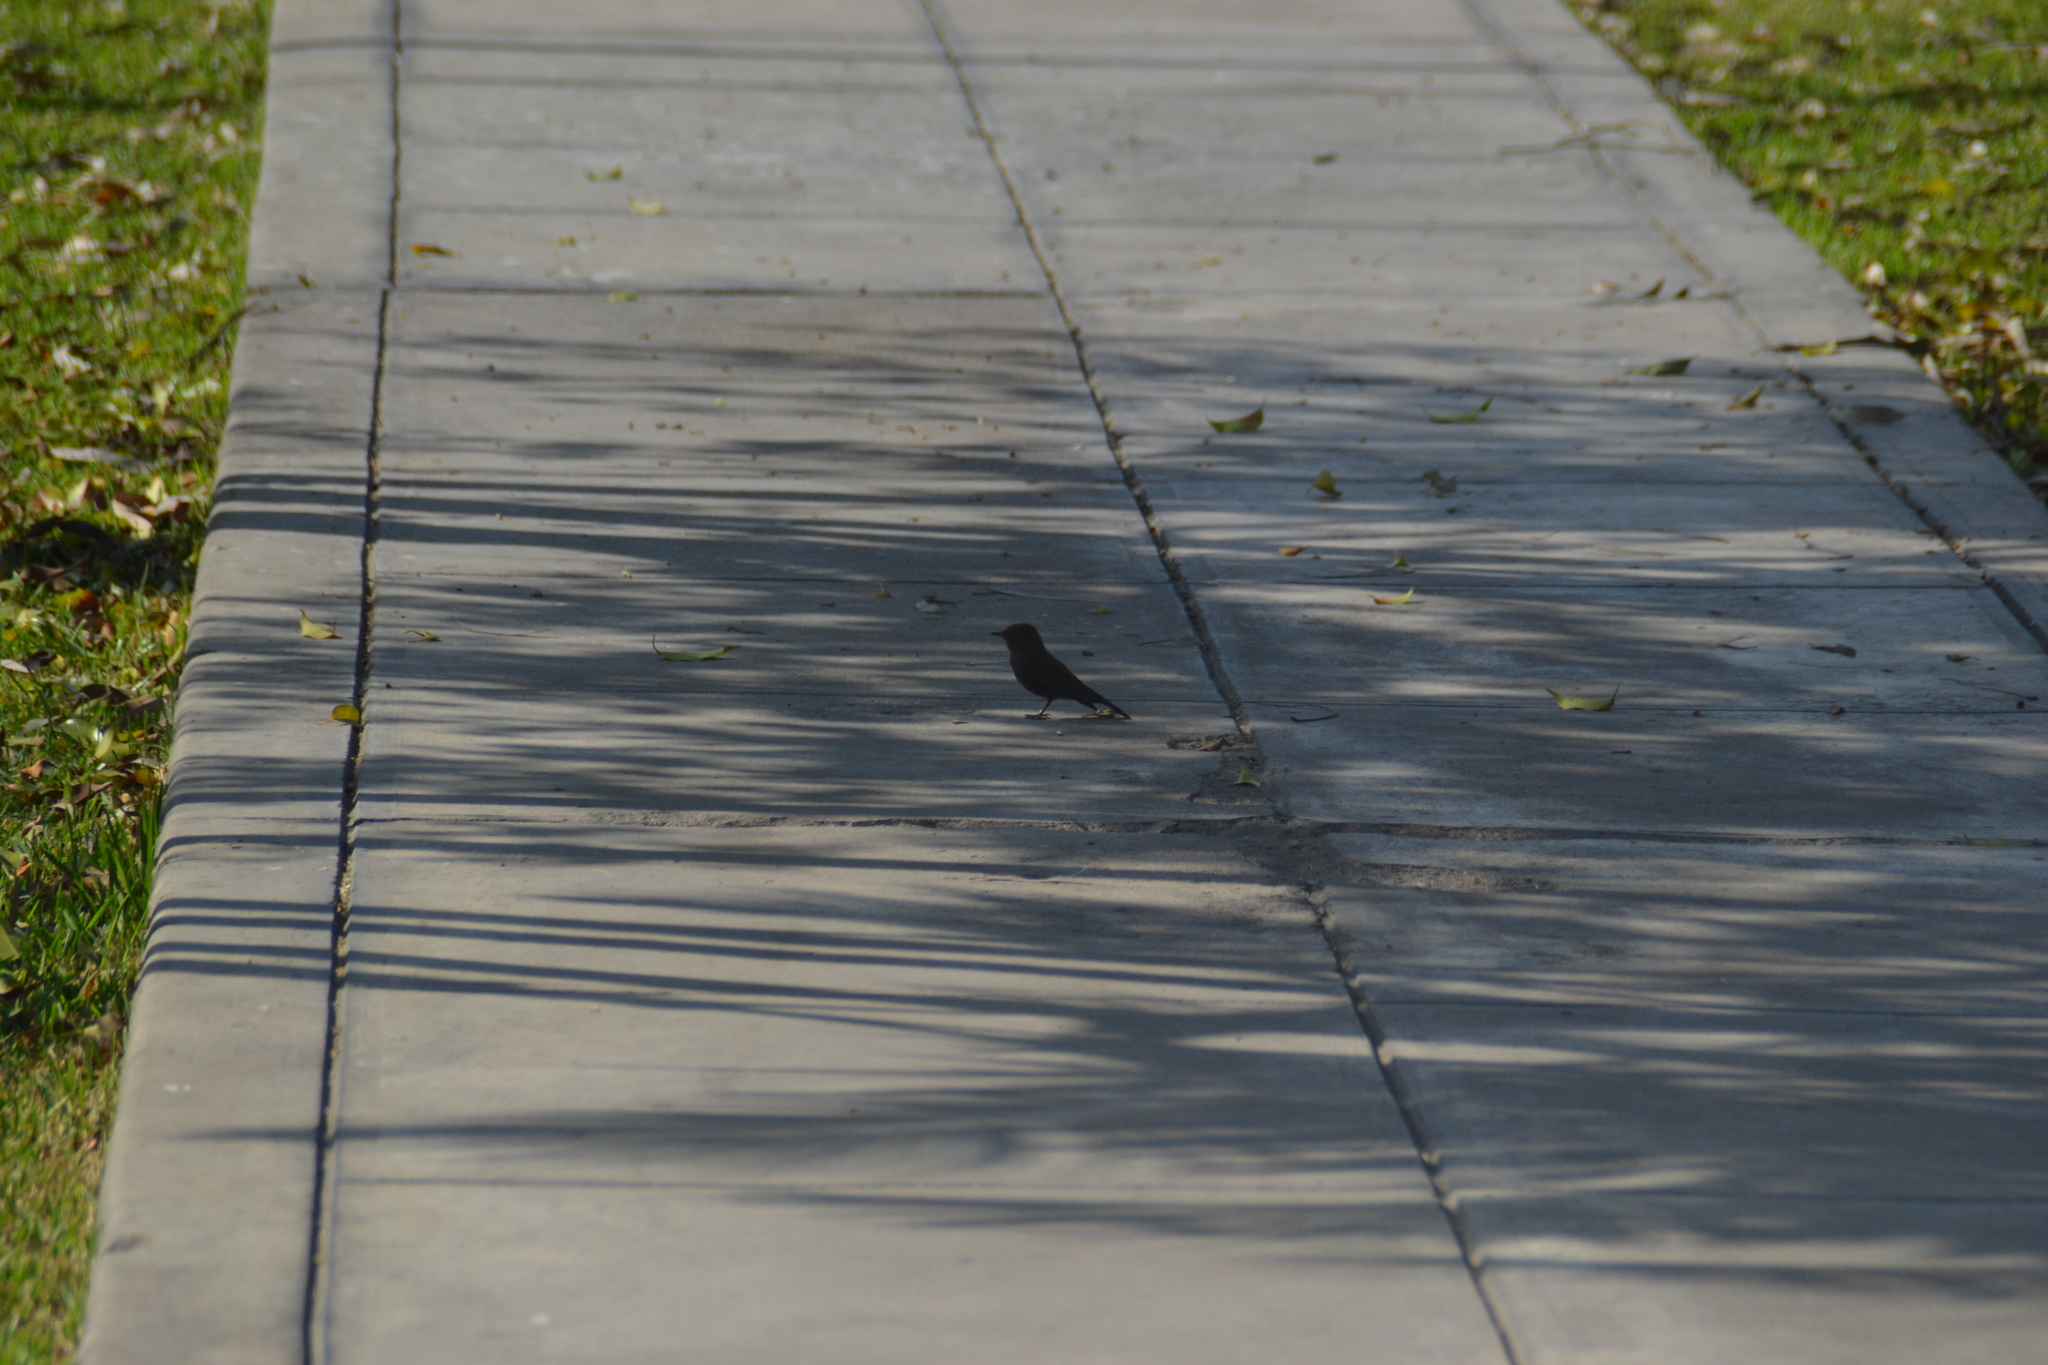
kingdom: Animalia
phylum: Chordata
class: Aves
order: Passeriformes
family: Tyrannidae
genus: Pyrocephalus
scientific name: Pyrocephalus rubinus
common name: Vermilion flycatcher
